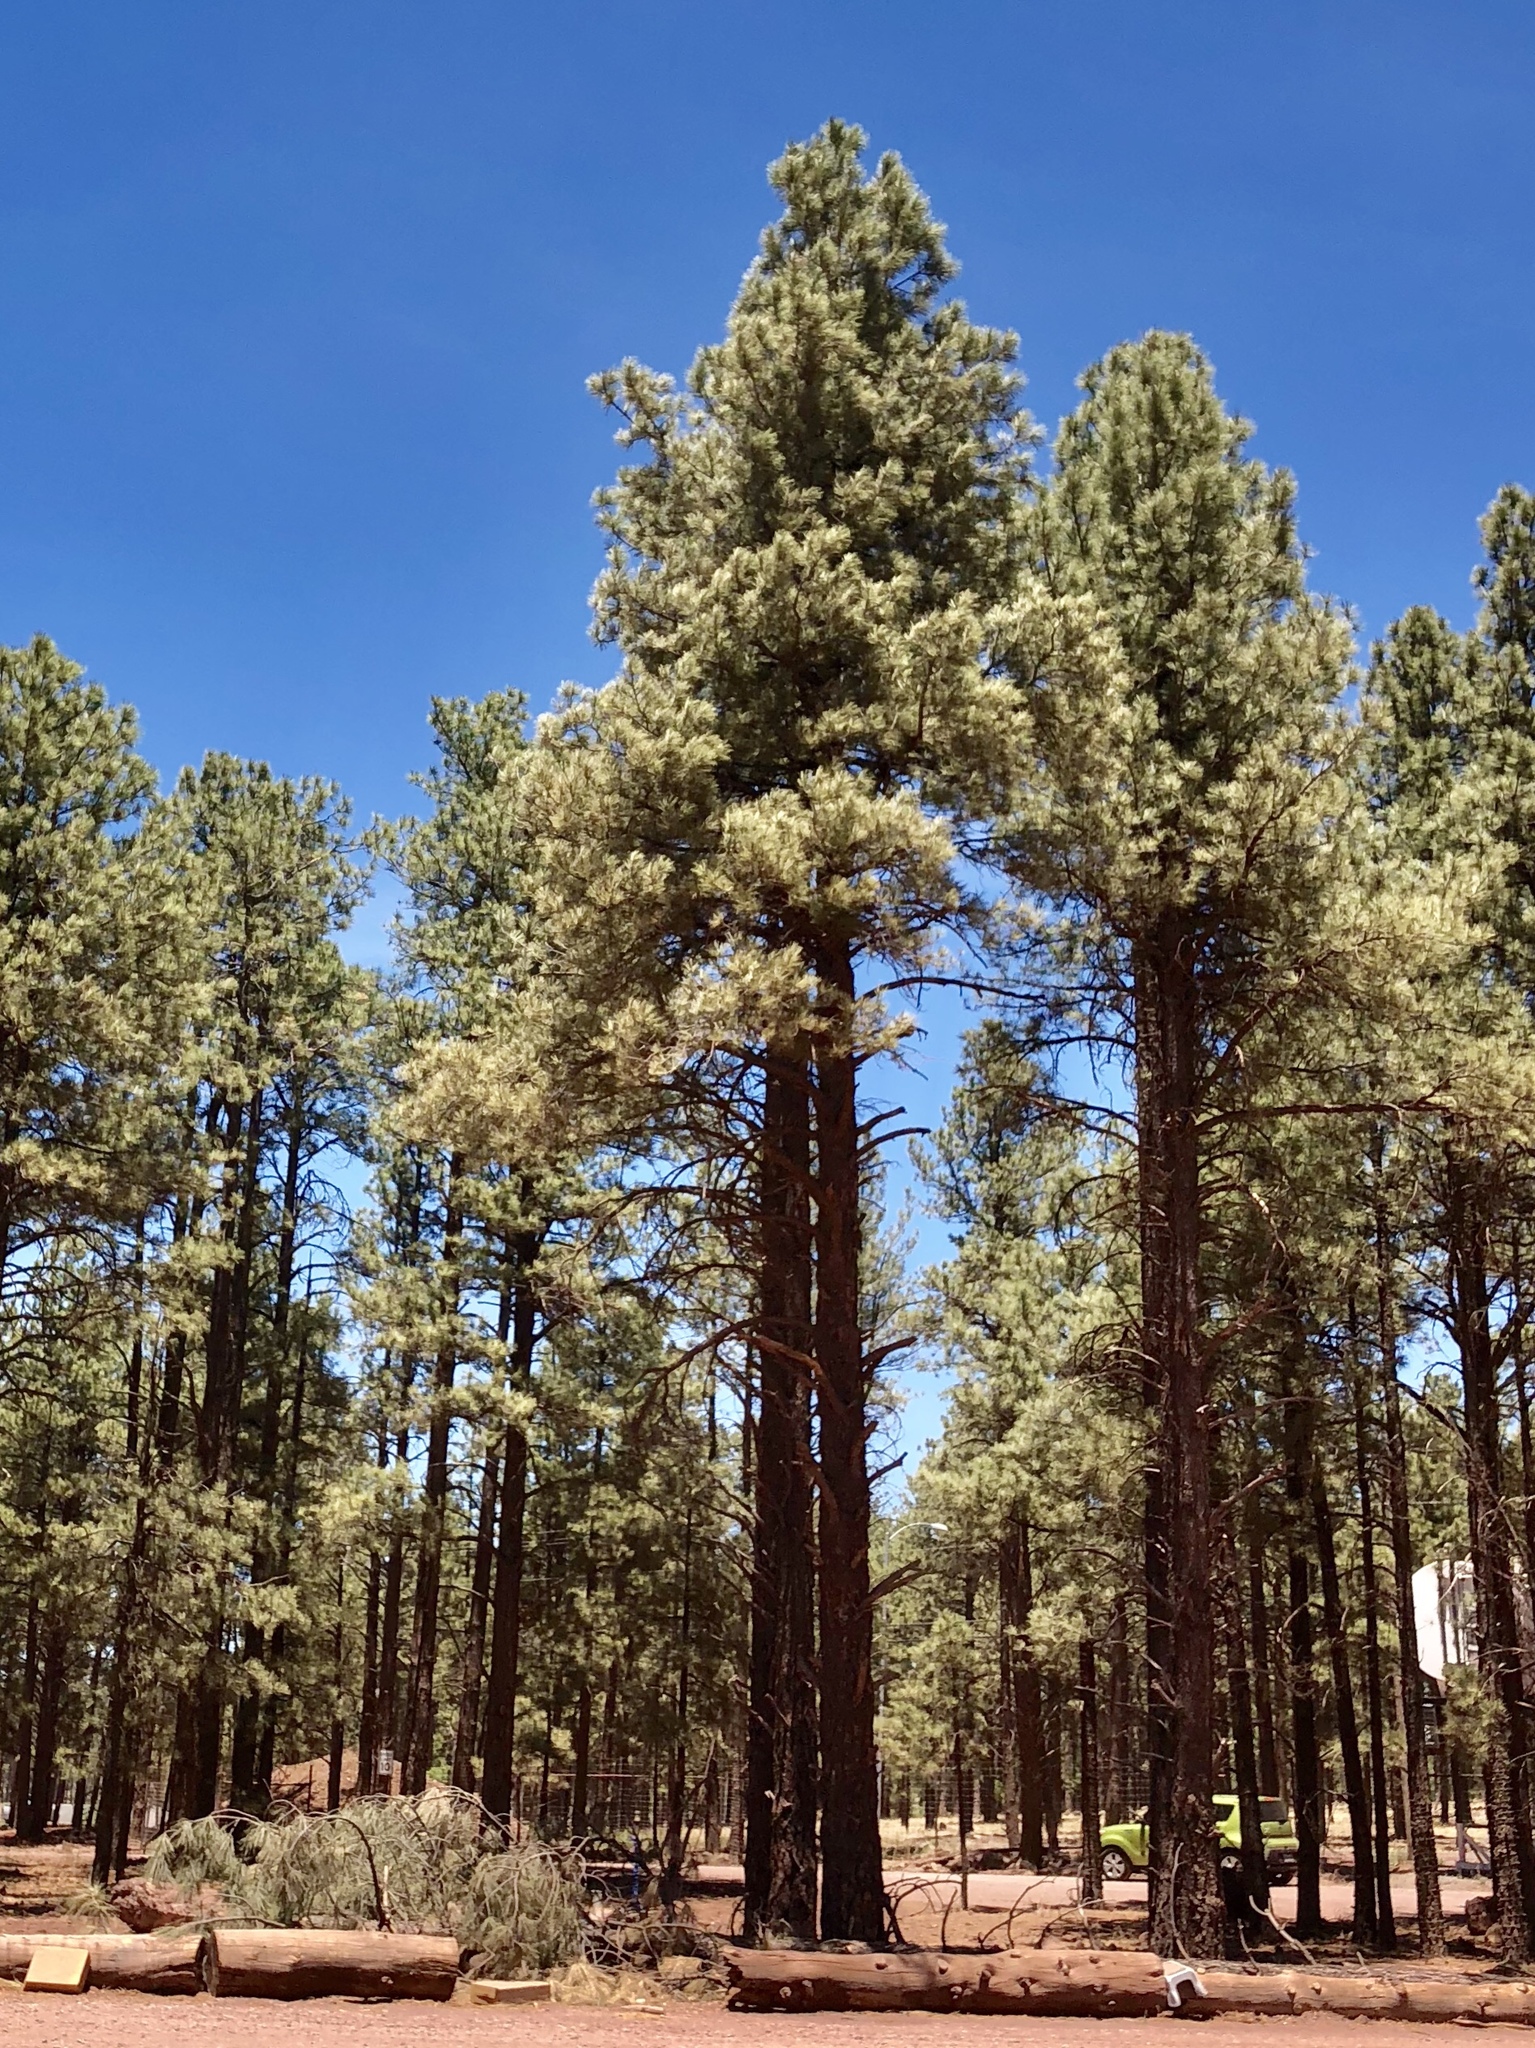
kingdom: Plantae
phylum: Tracheophyta
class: Pinopsida
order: Pinales
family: Pinaceae
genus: Pinus
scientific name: Pinus ponderosa
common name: Western yellow-pine
